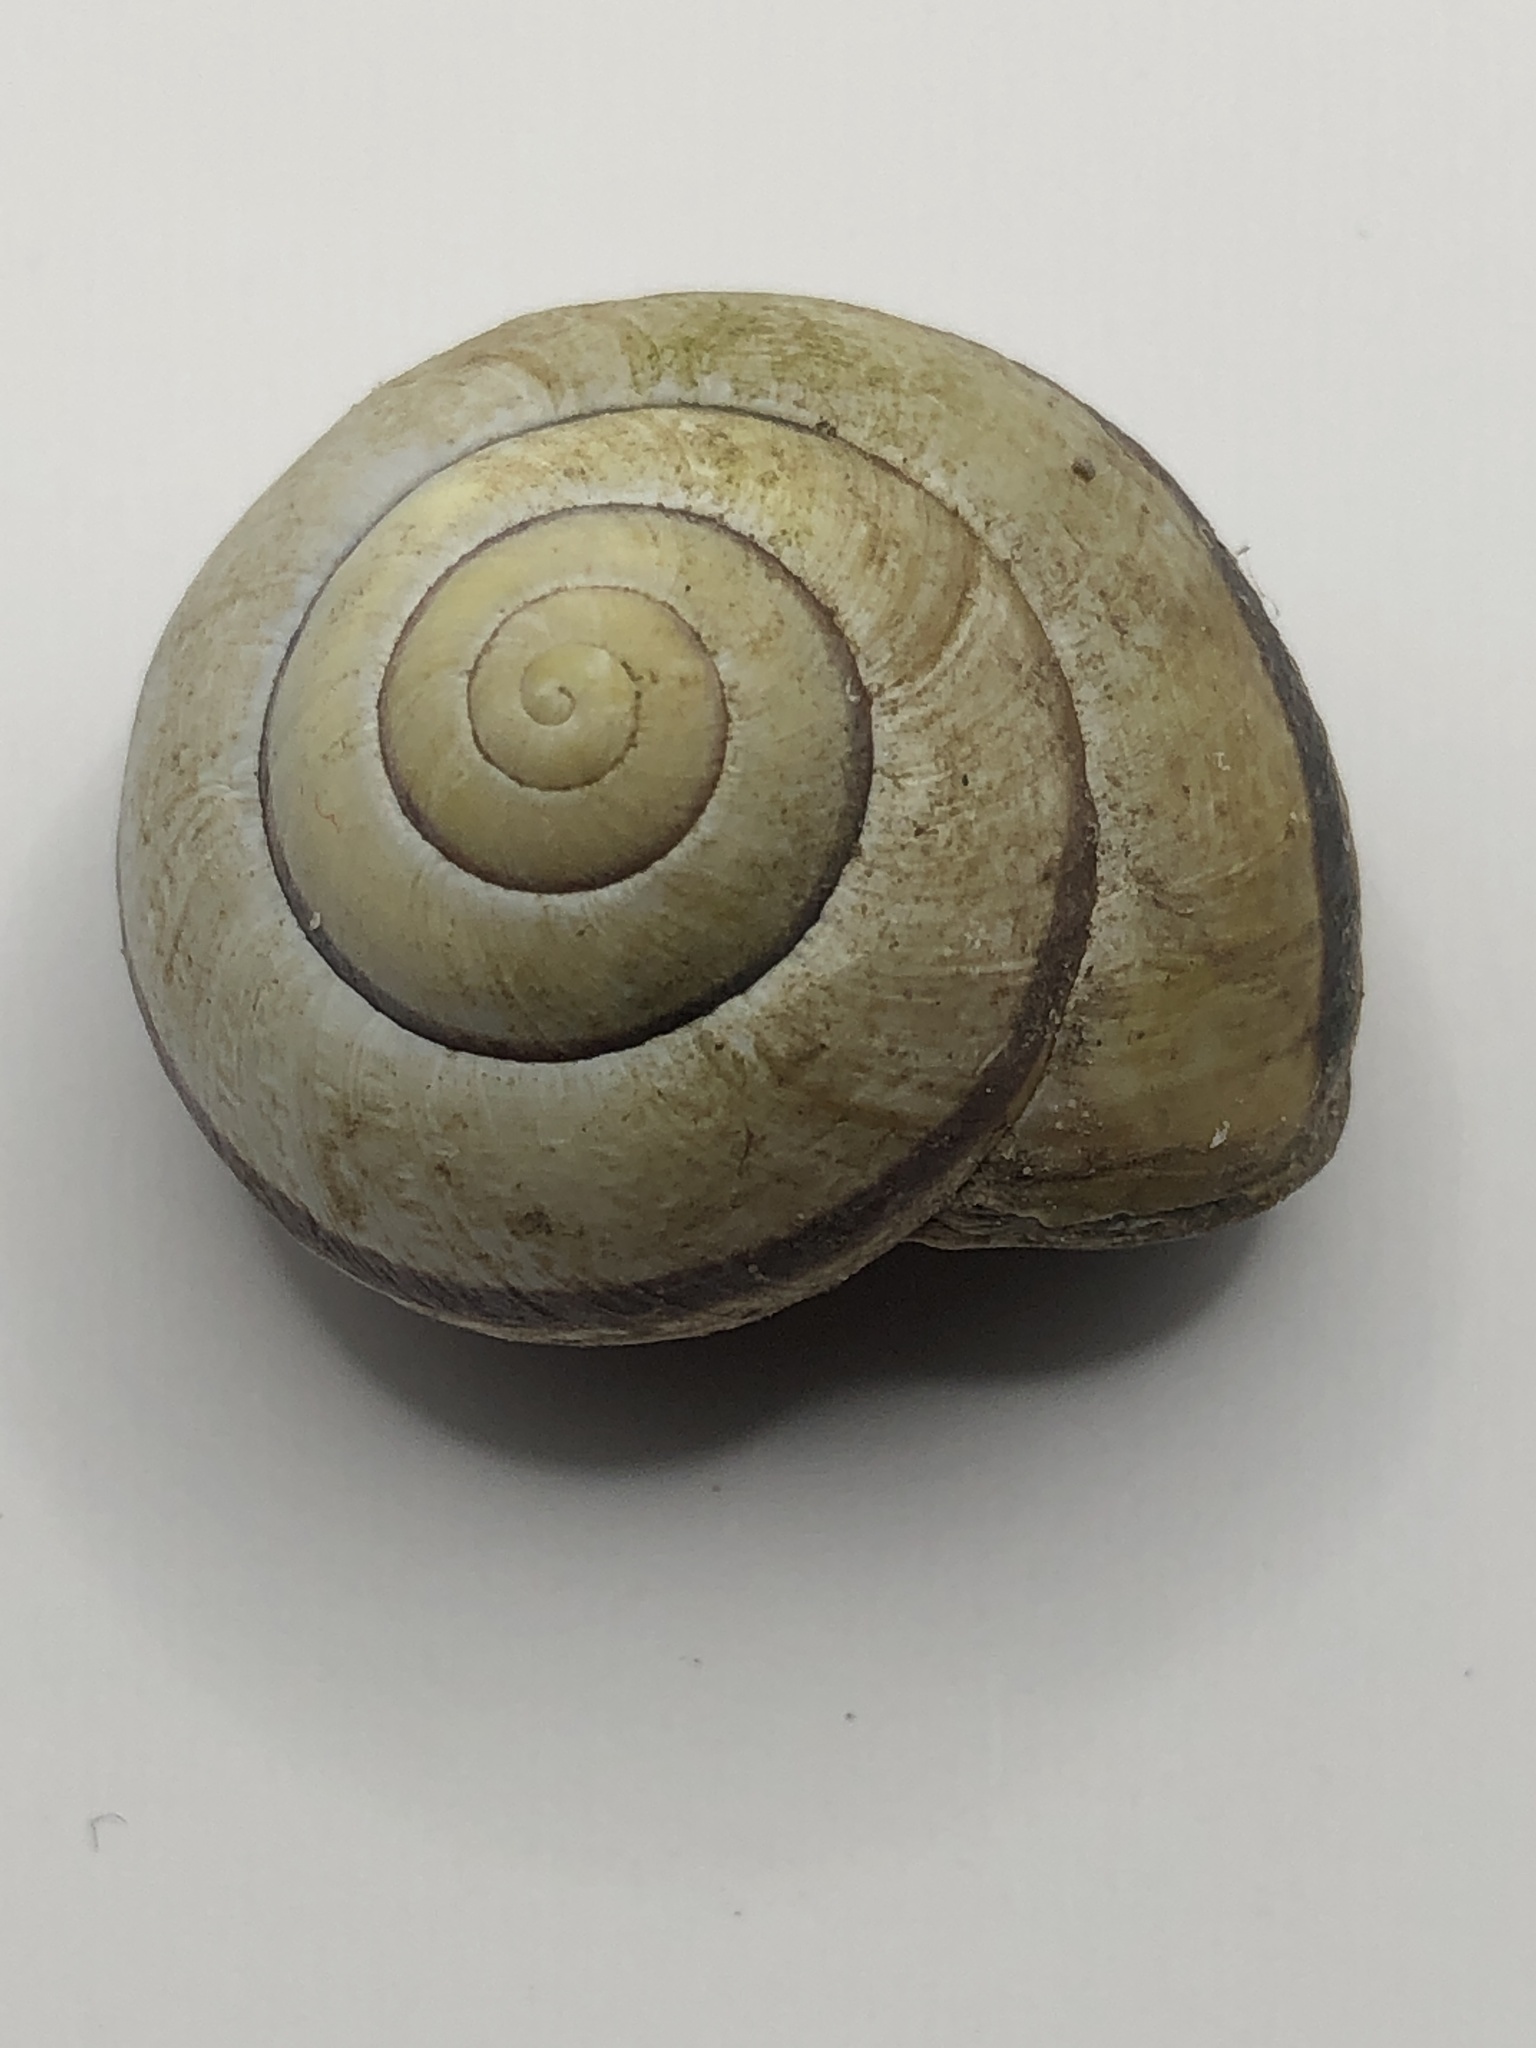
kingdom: Animalia
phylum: Mollusca
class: Gastropoda
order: Stylommatophora
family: Helicidae
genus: Cepaea
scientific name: Cepaea nemoralis
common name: Grovesnail
